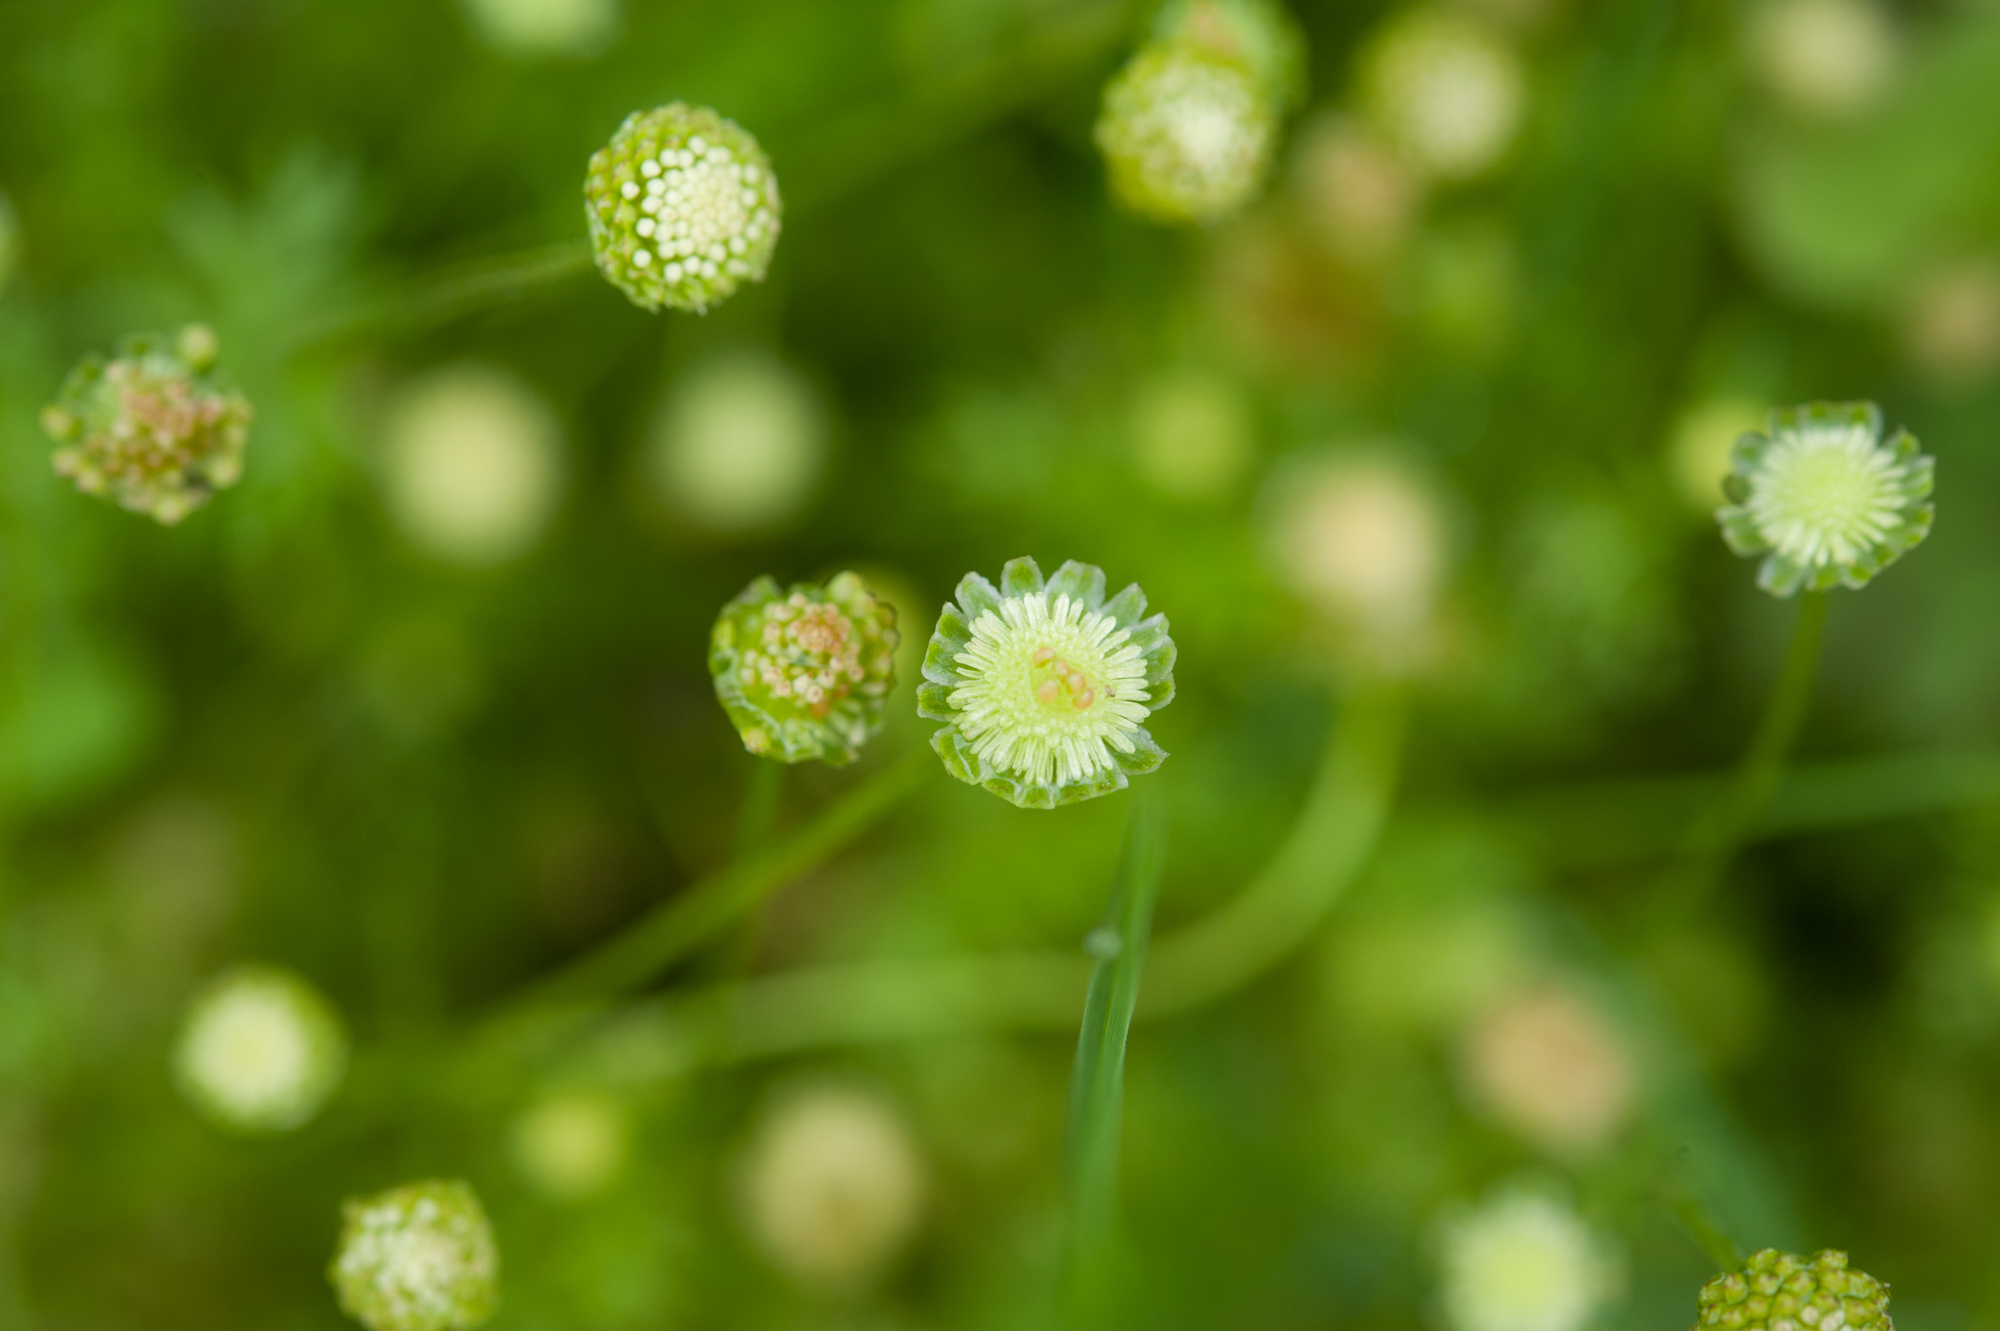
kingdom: Plantae
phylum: Tracheophyta
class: Magnoliopsida
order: Asterales
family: Asteraceae
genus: Cotula
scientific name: Cotula australis
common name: Australian waterbuttons
